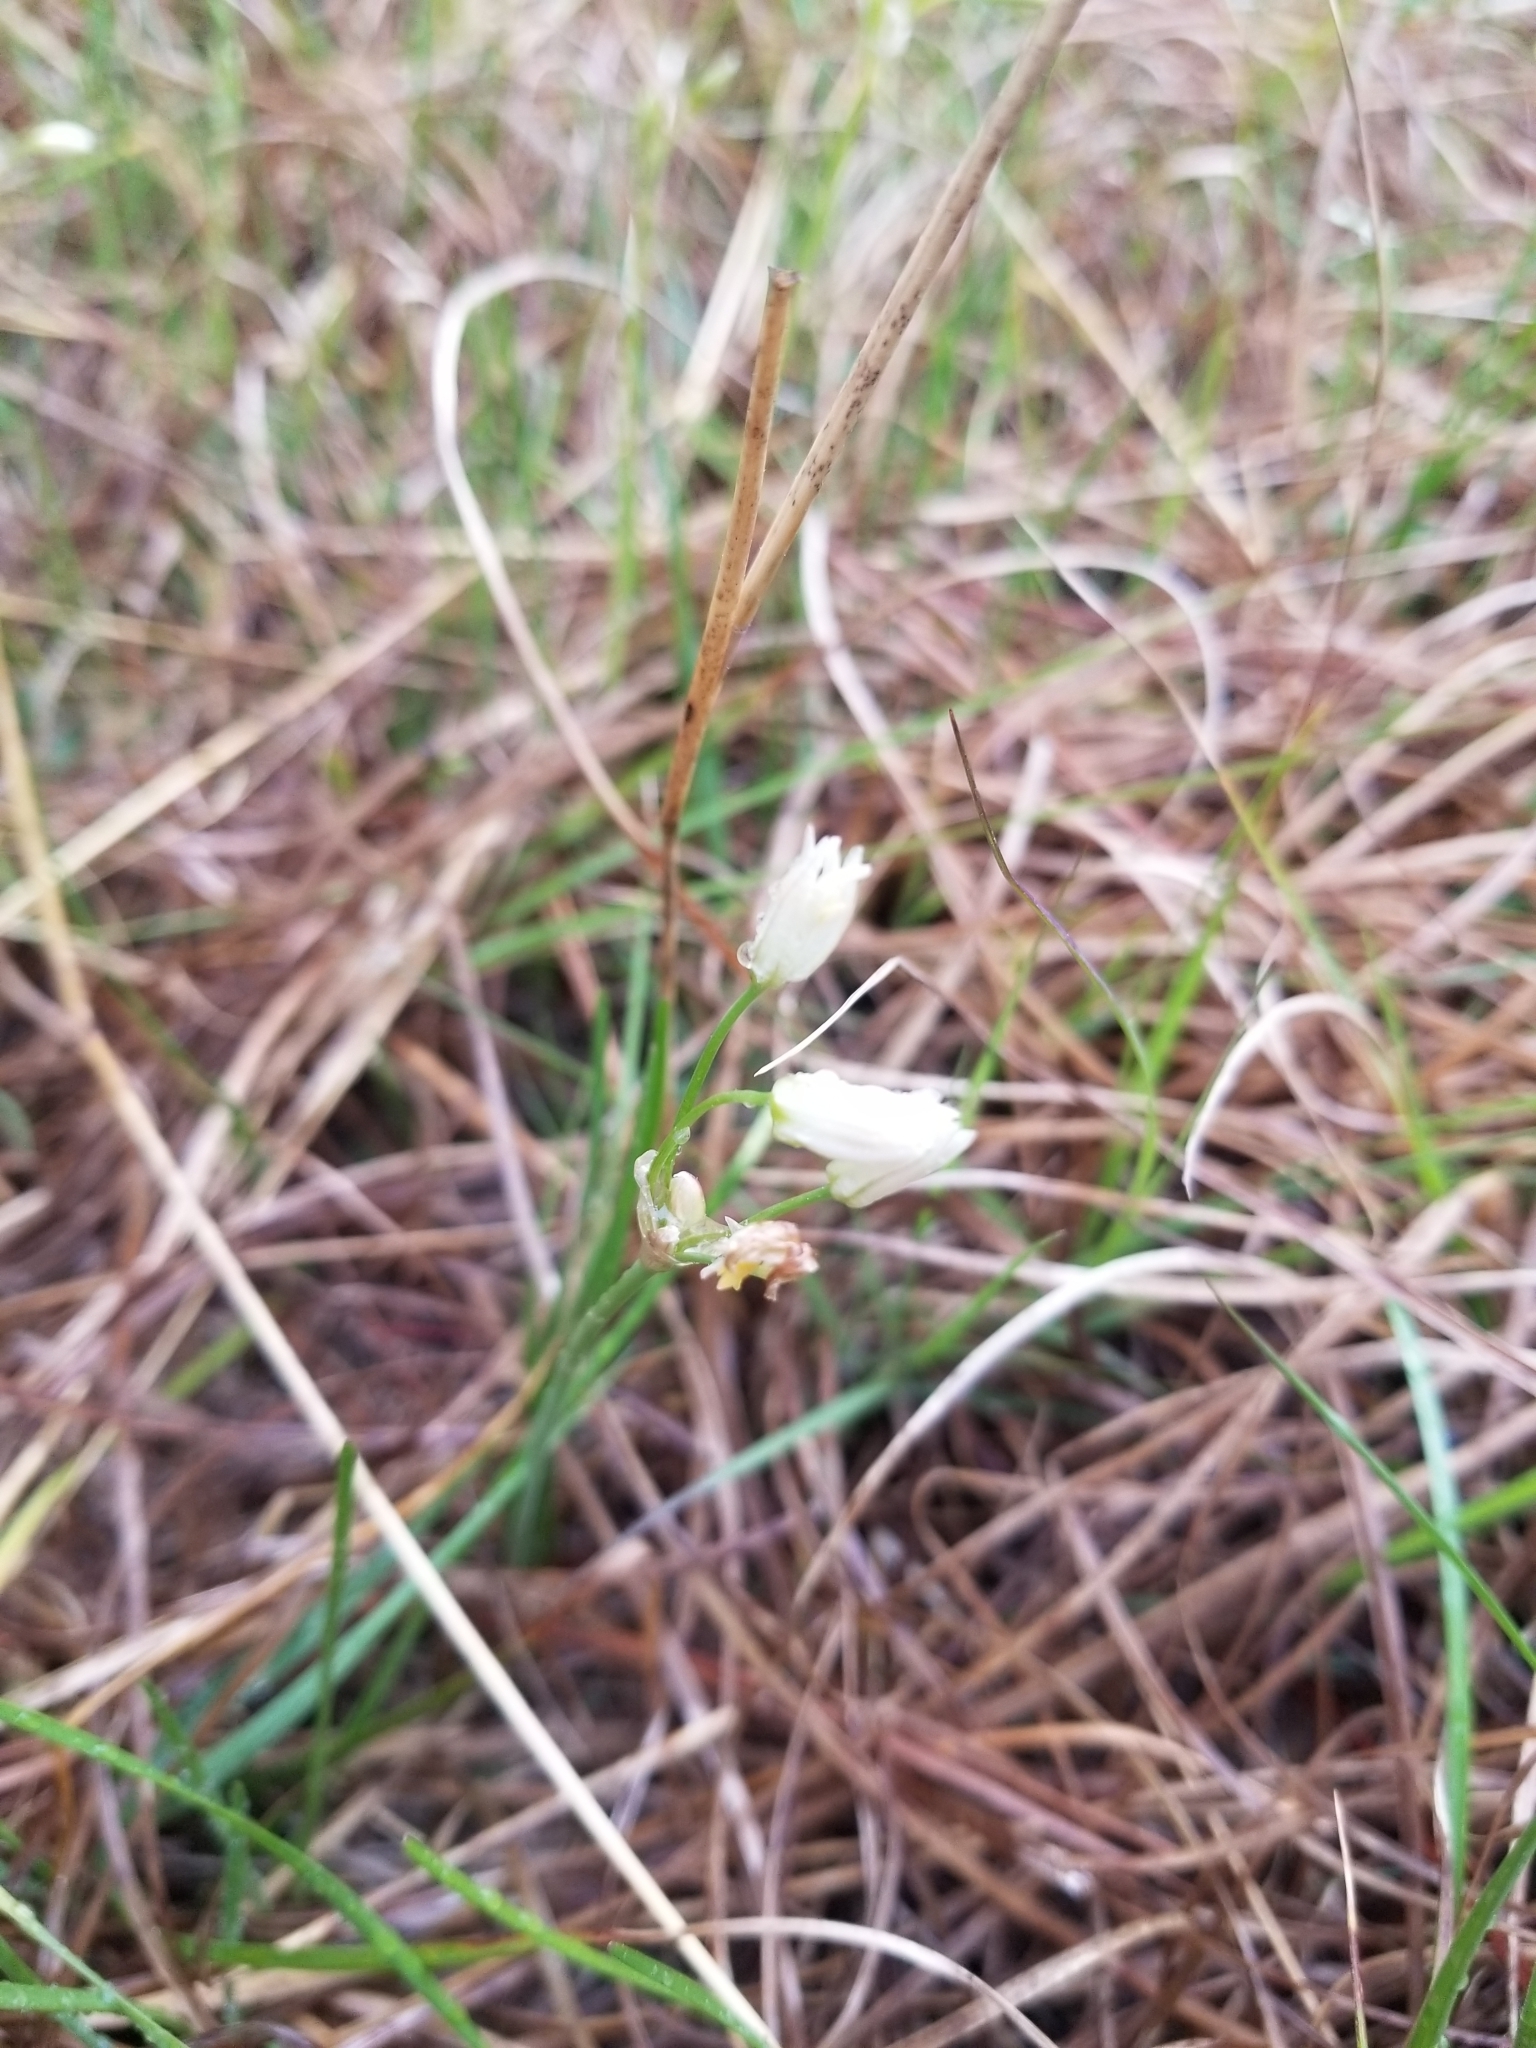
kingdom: Plantae
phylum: Tracheophyta
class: Liliopsida
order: Asparagales
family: Amaryllidaceae
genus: Nothoscordum
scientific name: Nothoscordum bivalve
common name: Crow-poison
